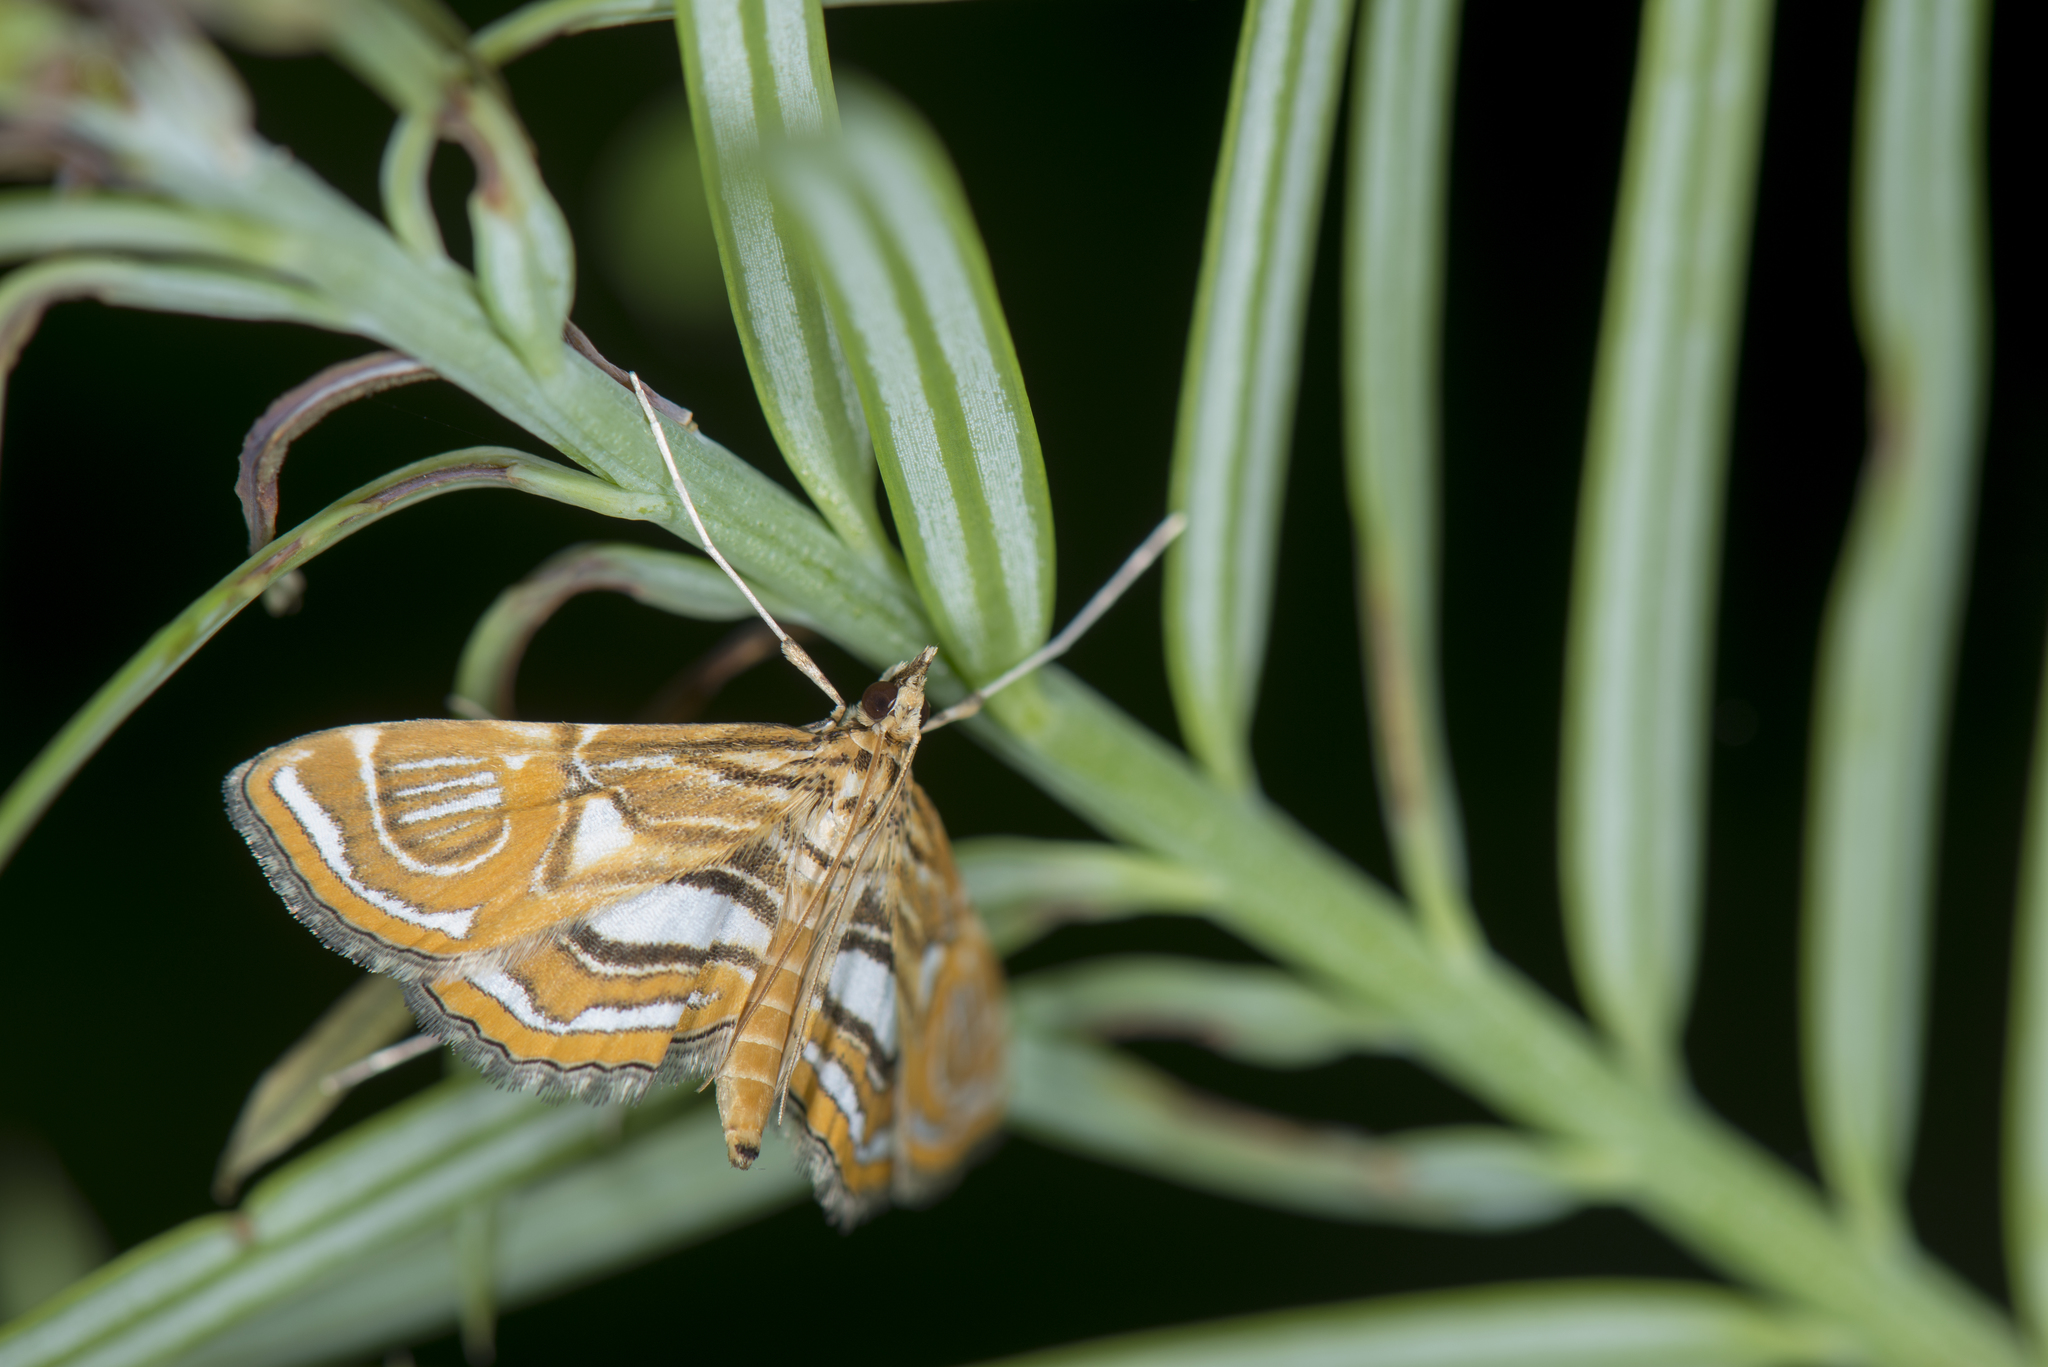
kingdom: Animalia
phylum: Arthropoda
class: Insecta
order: Lepidoptera
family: Crambidae
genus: Paracymoriza
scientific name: Paracymoriza cataclystalis
